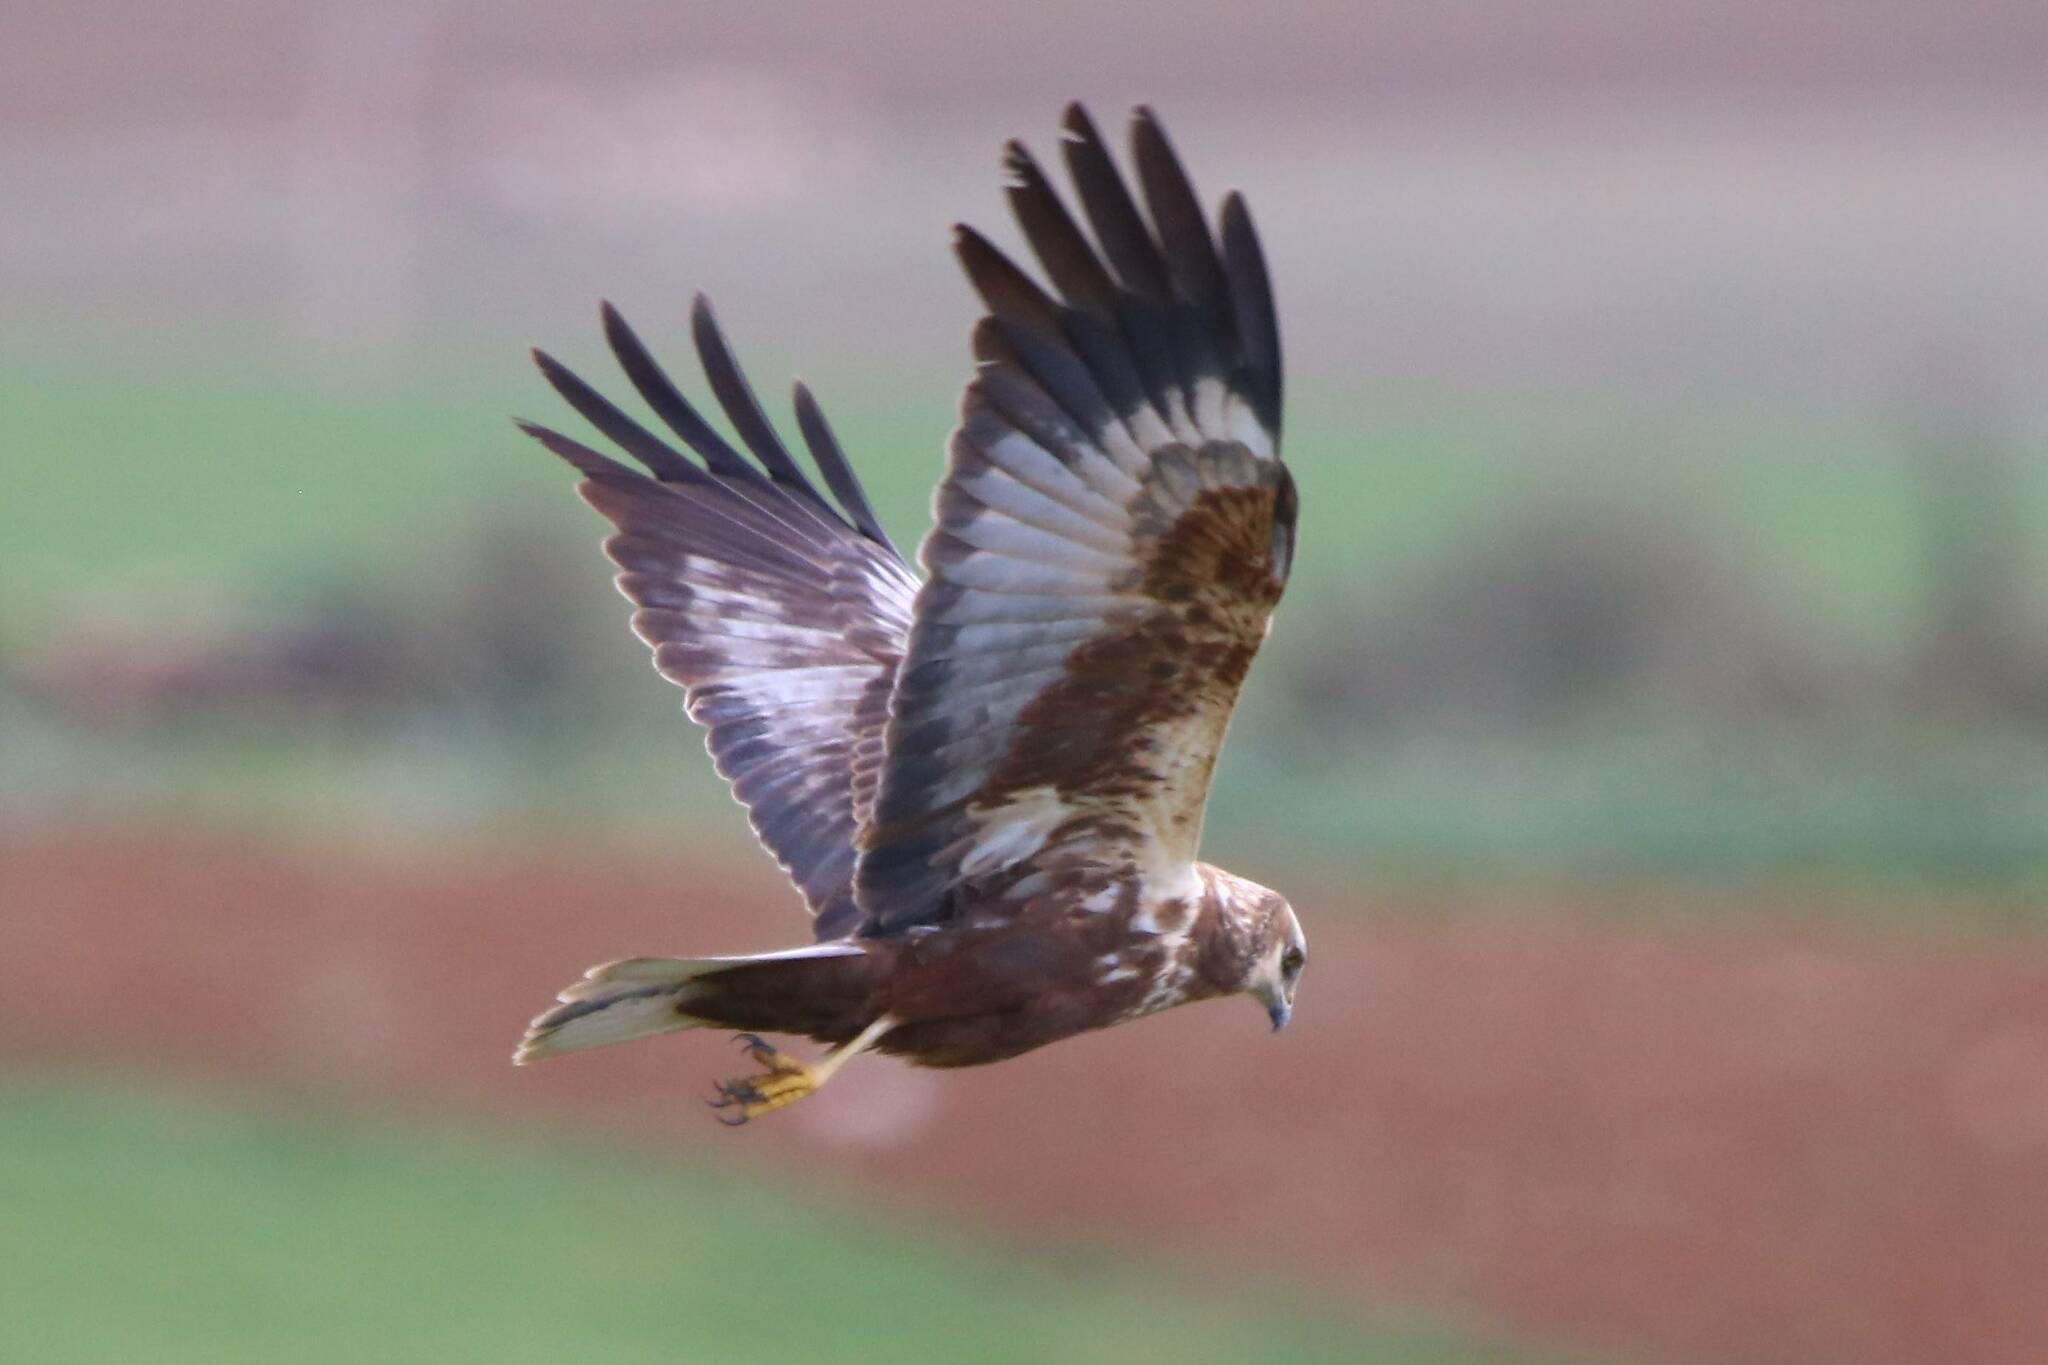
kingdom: Animalia
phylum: Chordata
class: Aves
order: Accipitriformes
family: Accipitridae
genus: Circus
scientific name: Circus aeruginosus
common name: Western marsh harrier
